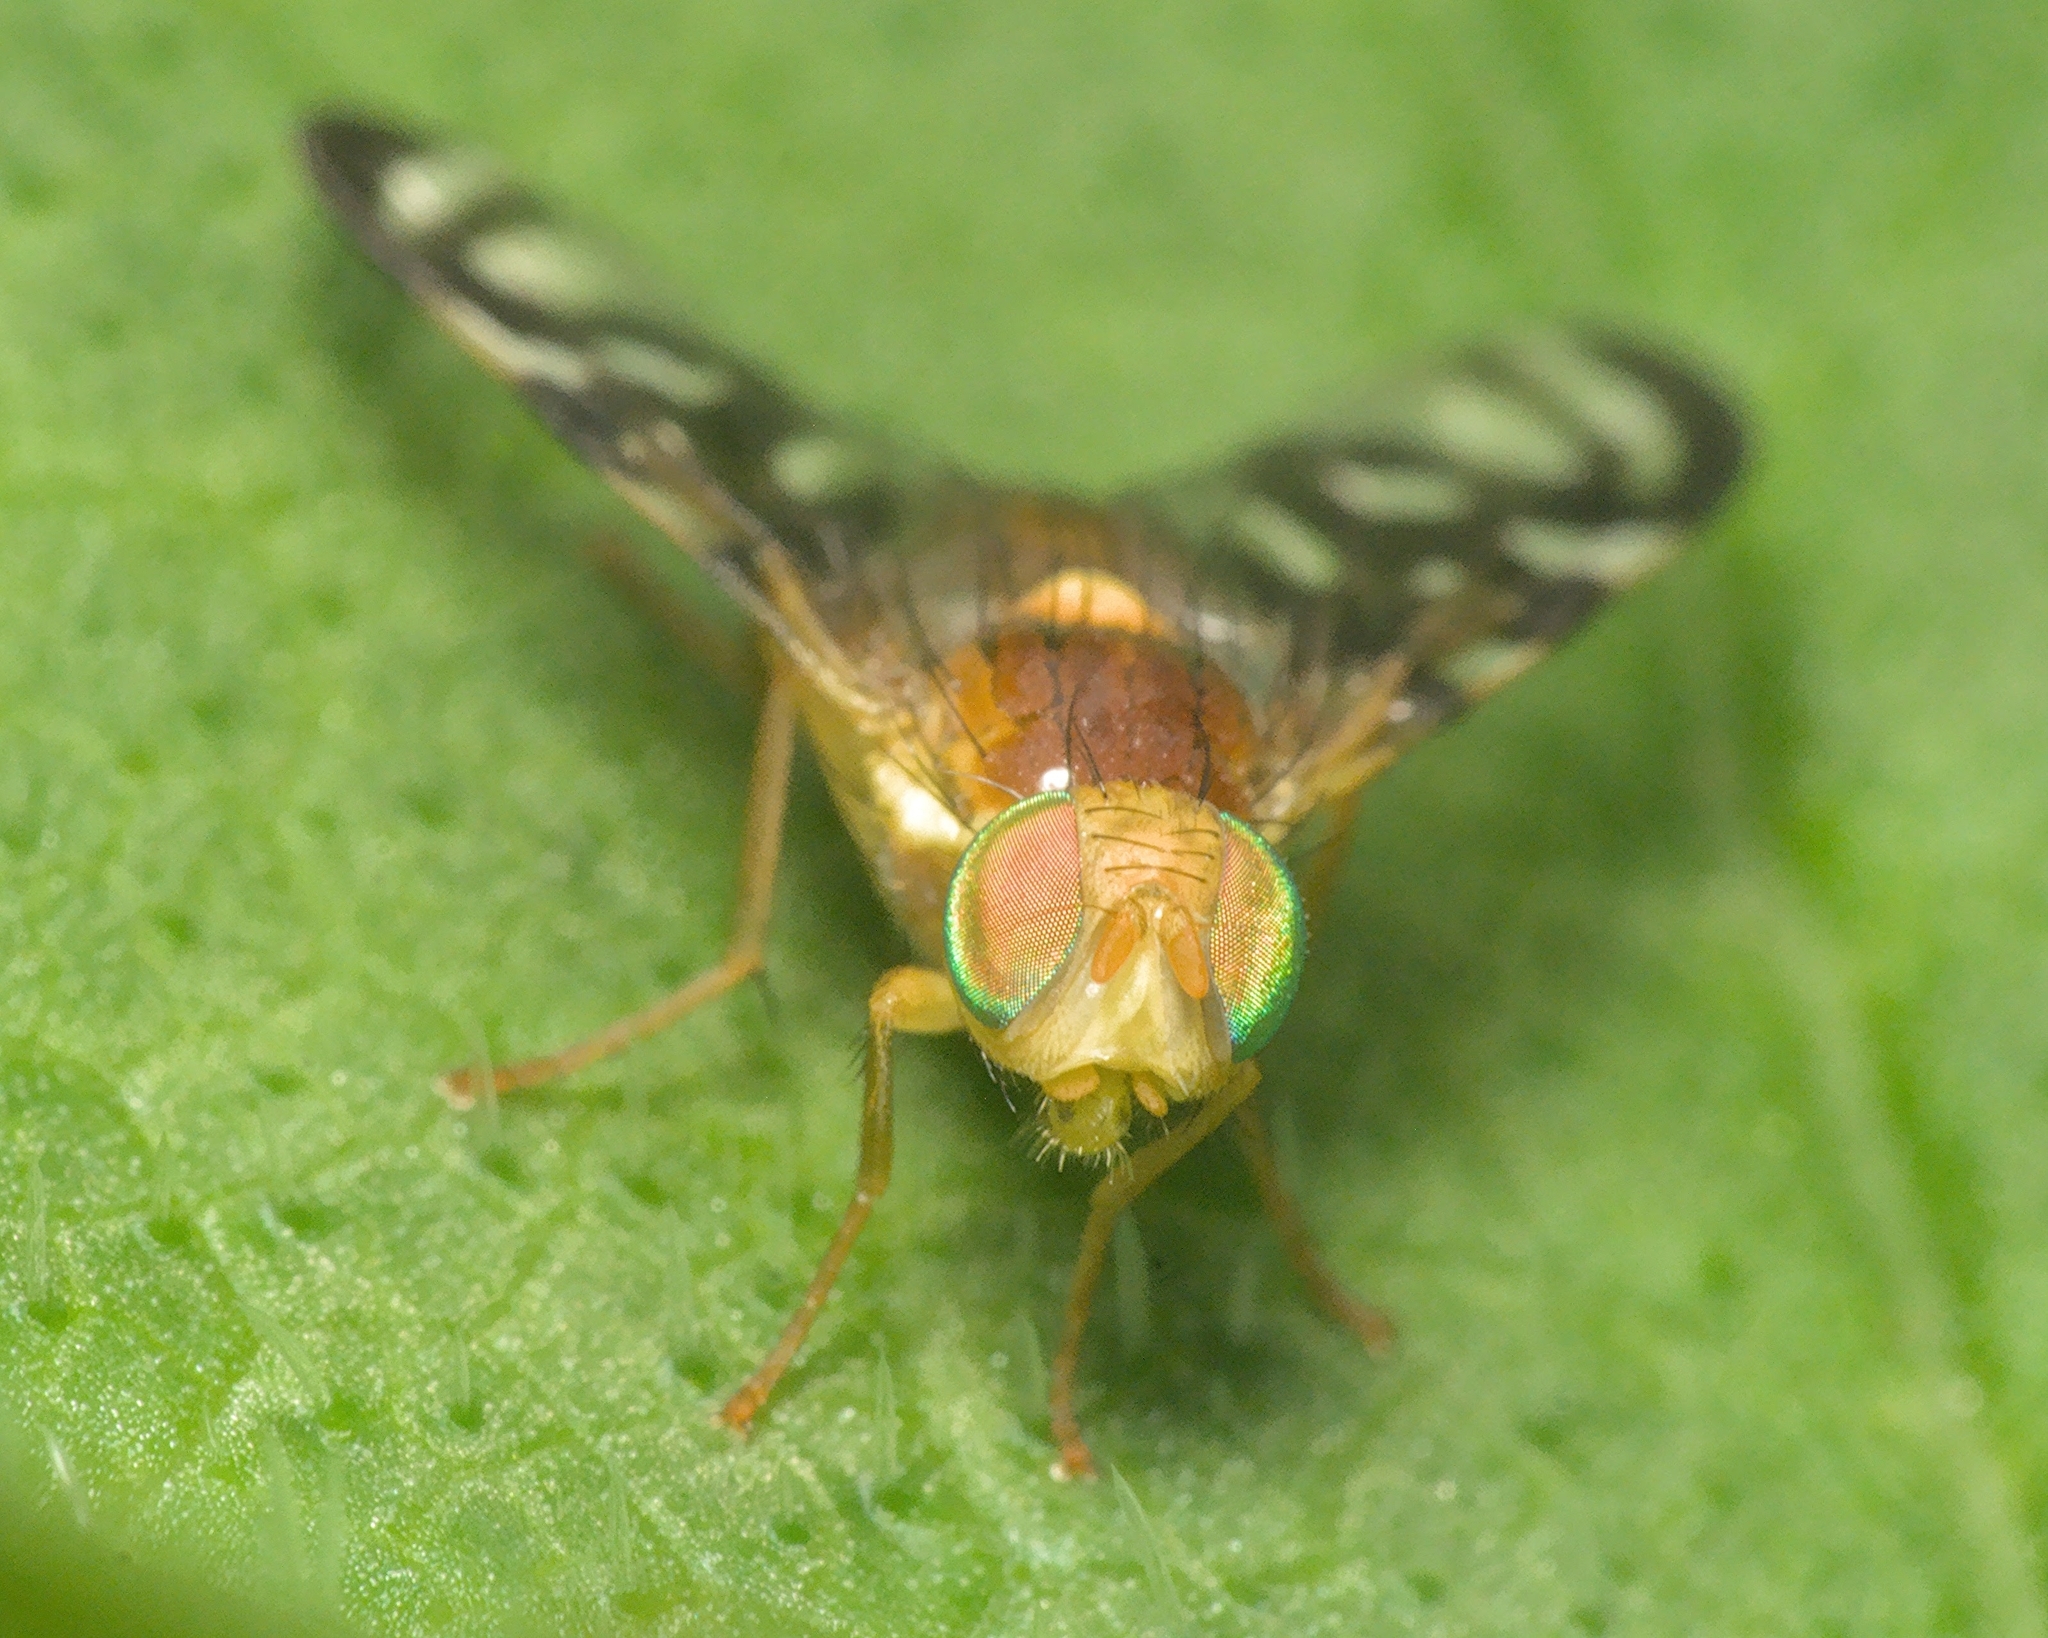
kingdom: Animalia
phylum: Arthropoda
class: Insecta
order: Diptera
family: Tephritidae
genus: Euleia
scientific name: Euleia heraclei
